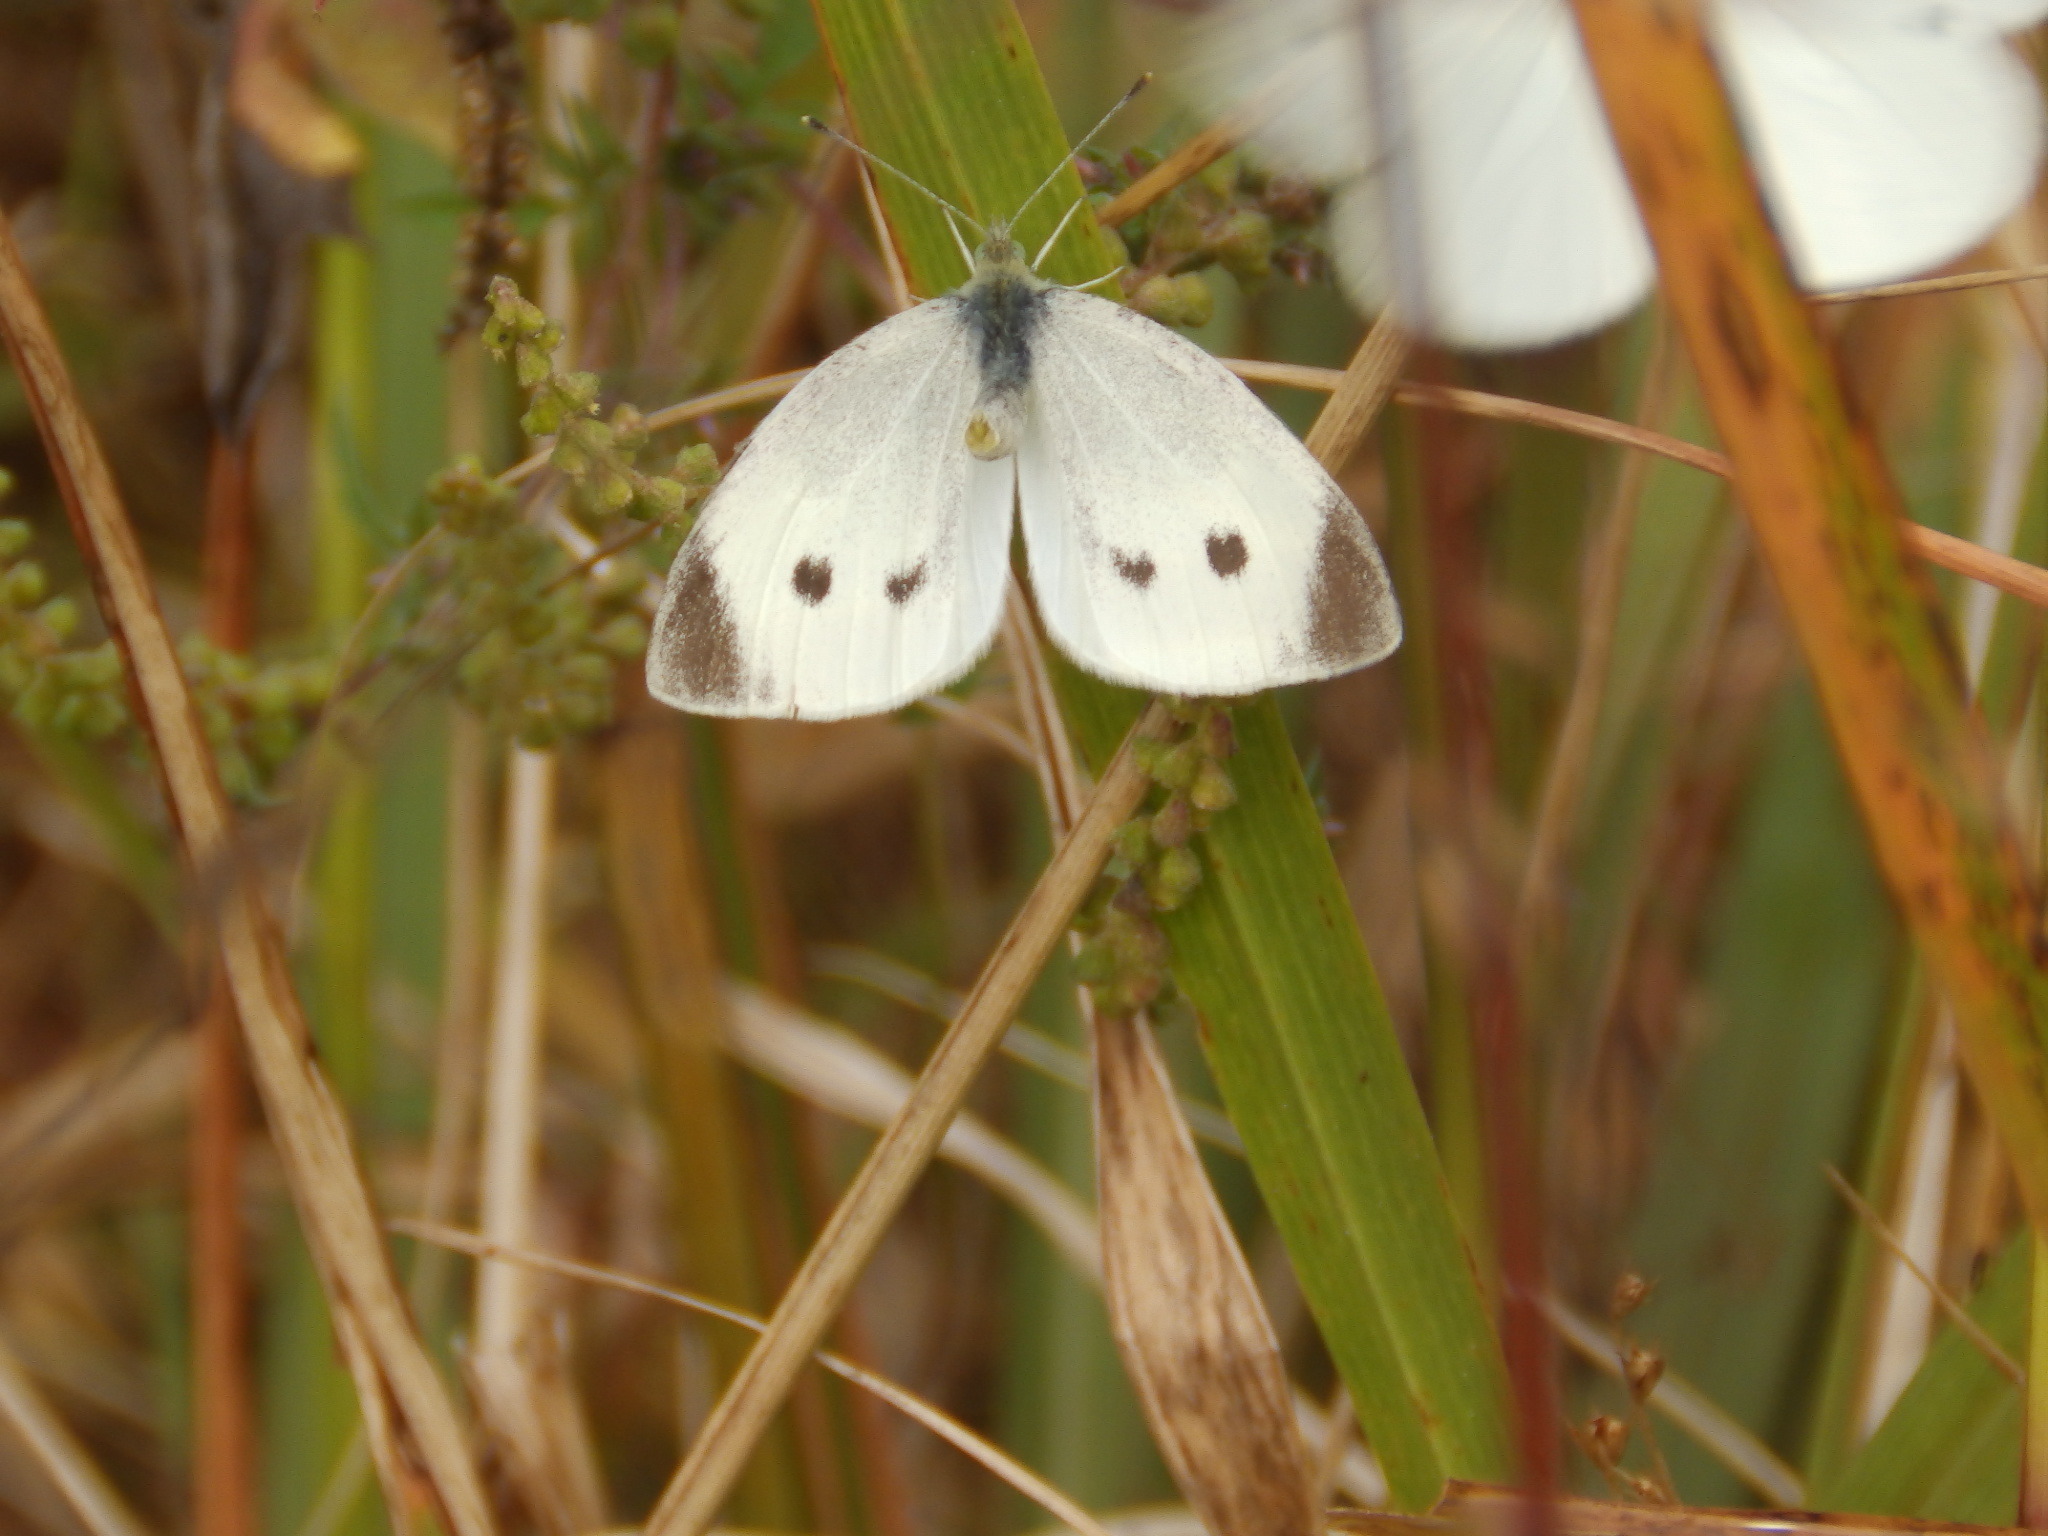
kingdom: Animalia
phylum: Arthropoda
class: Insecta
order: Lepidoptera
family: Pieridae
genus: Pieris
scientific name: Pieris rapae
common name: Small white
